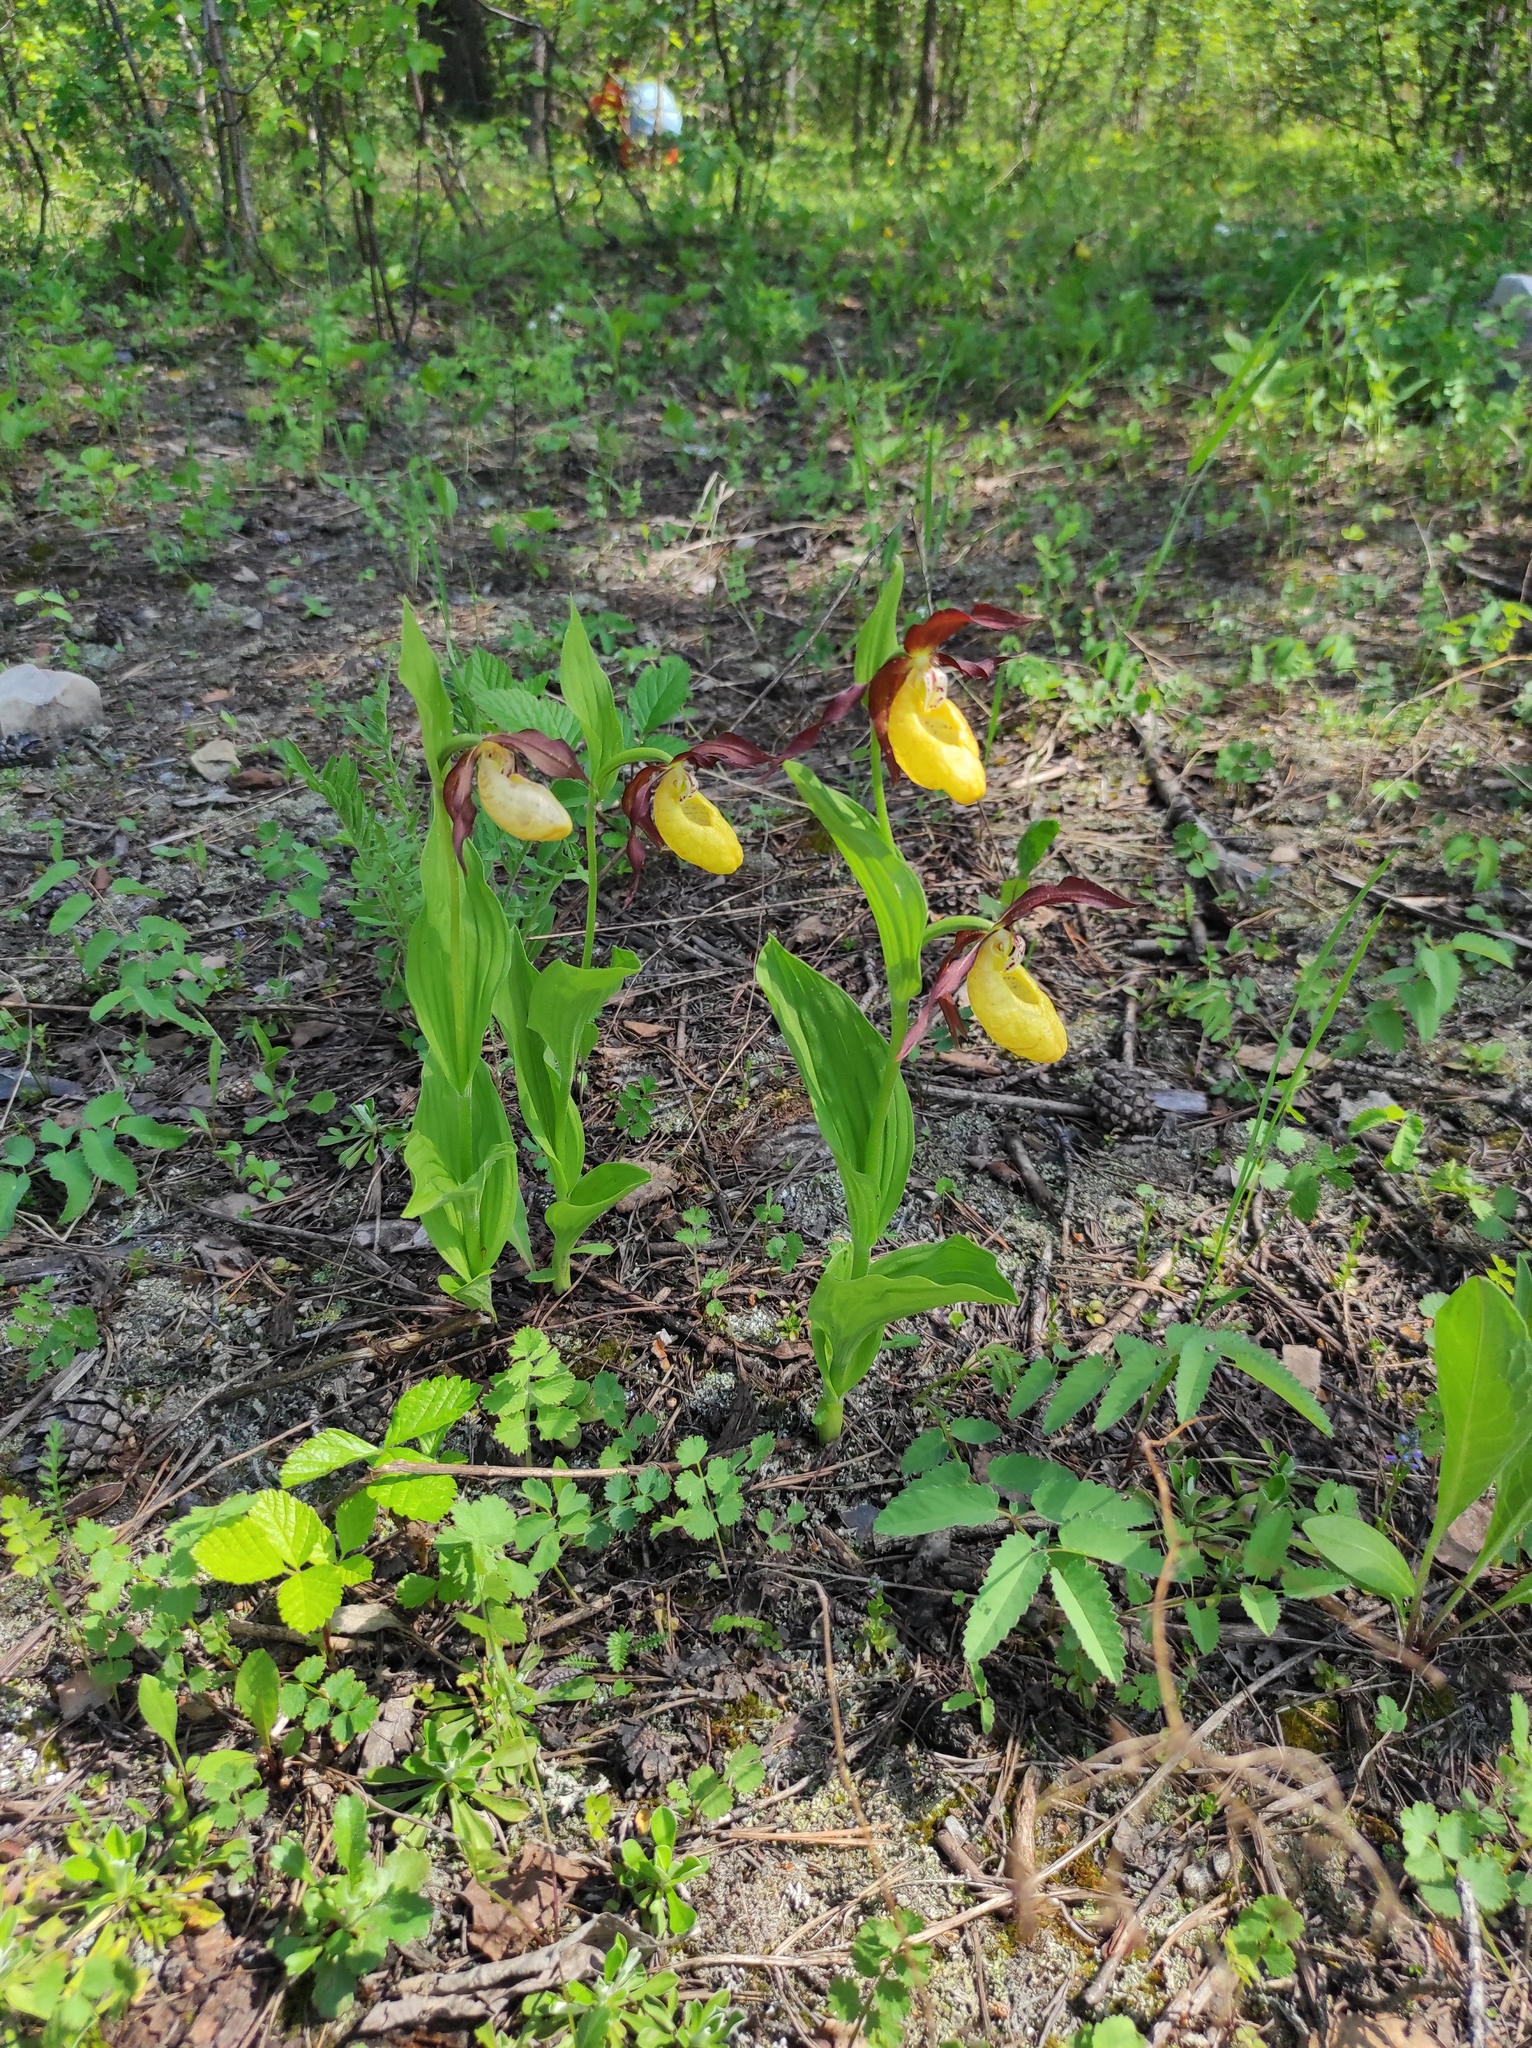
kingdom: Plantae
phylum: Tracheophyta
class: Liliopsida
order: Asparagales
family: Orchidaceae
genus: Cypripedium
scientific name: Cypripedium calceolus
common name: Lady's-slipper
